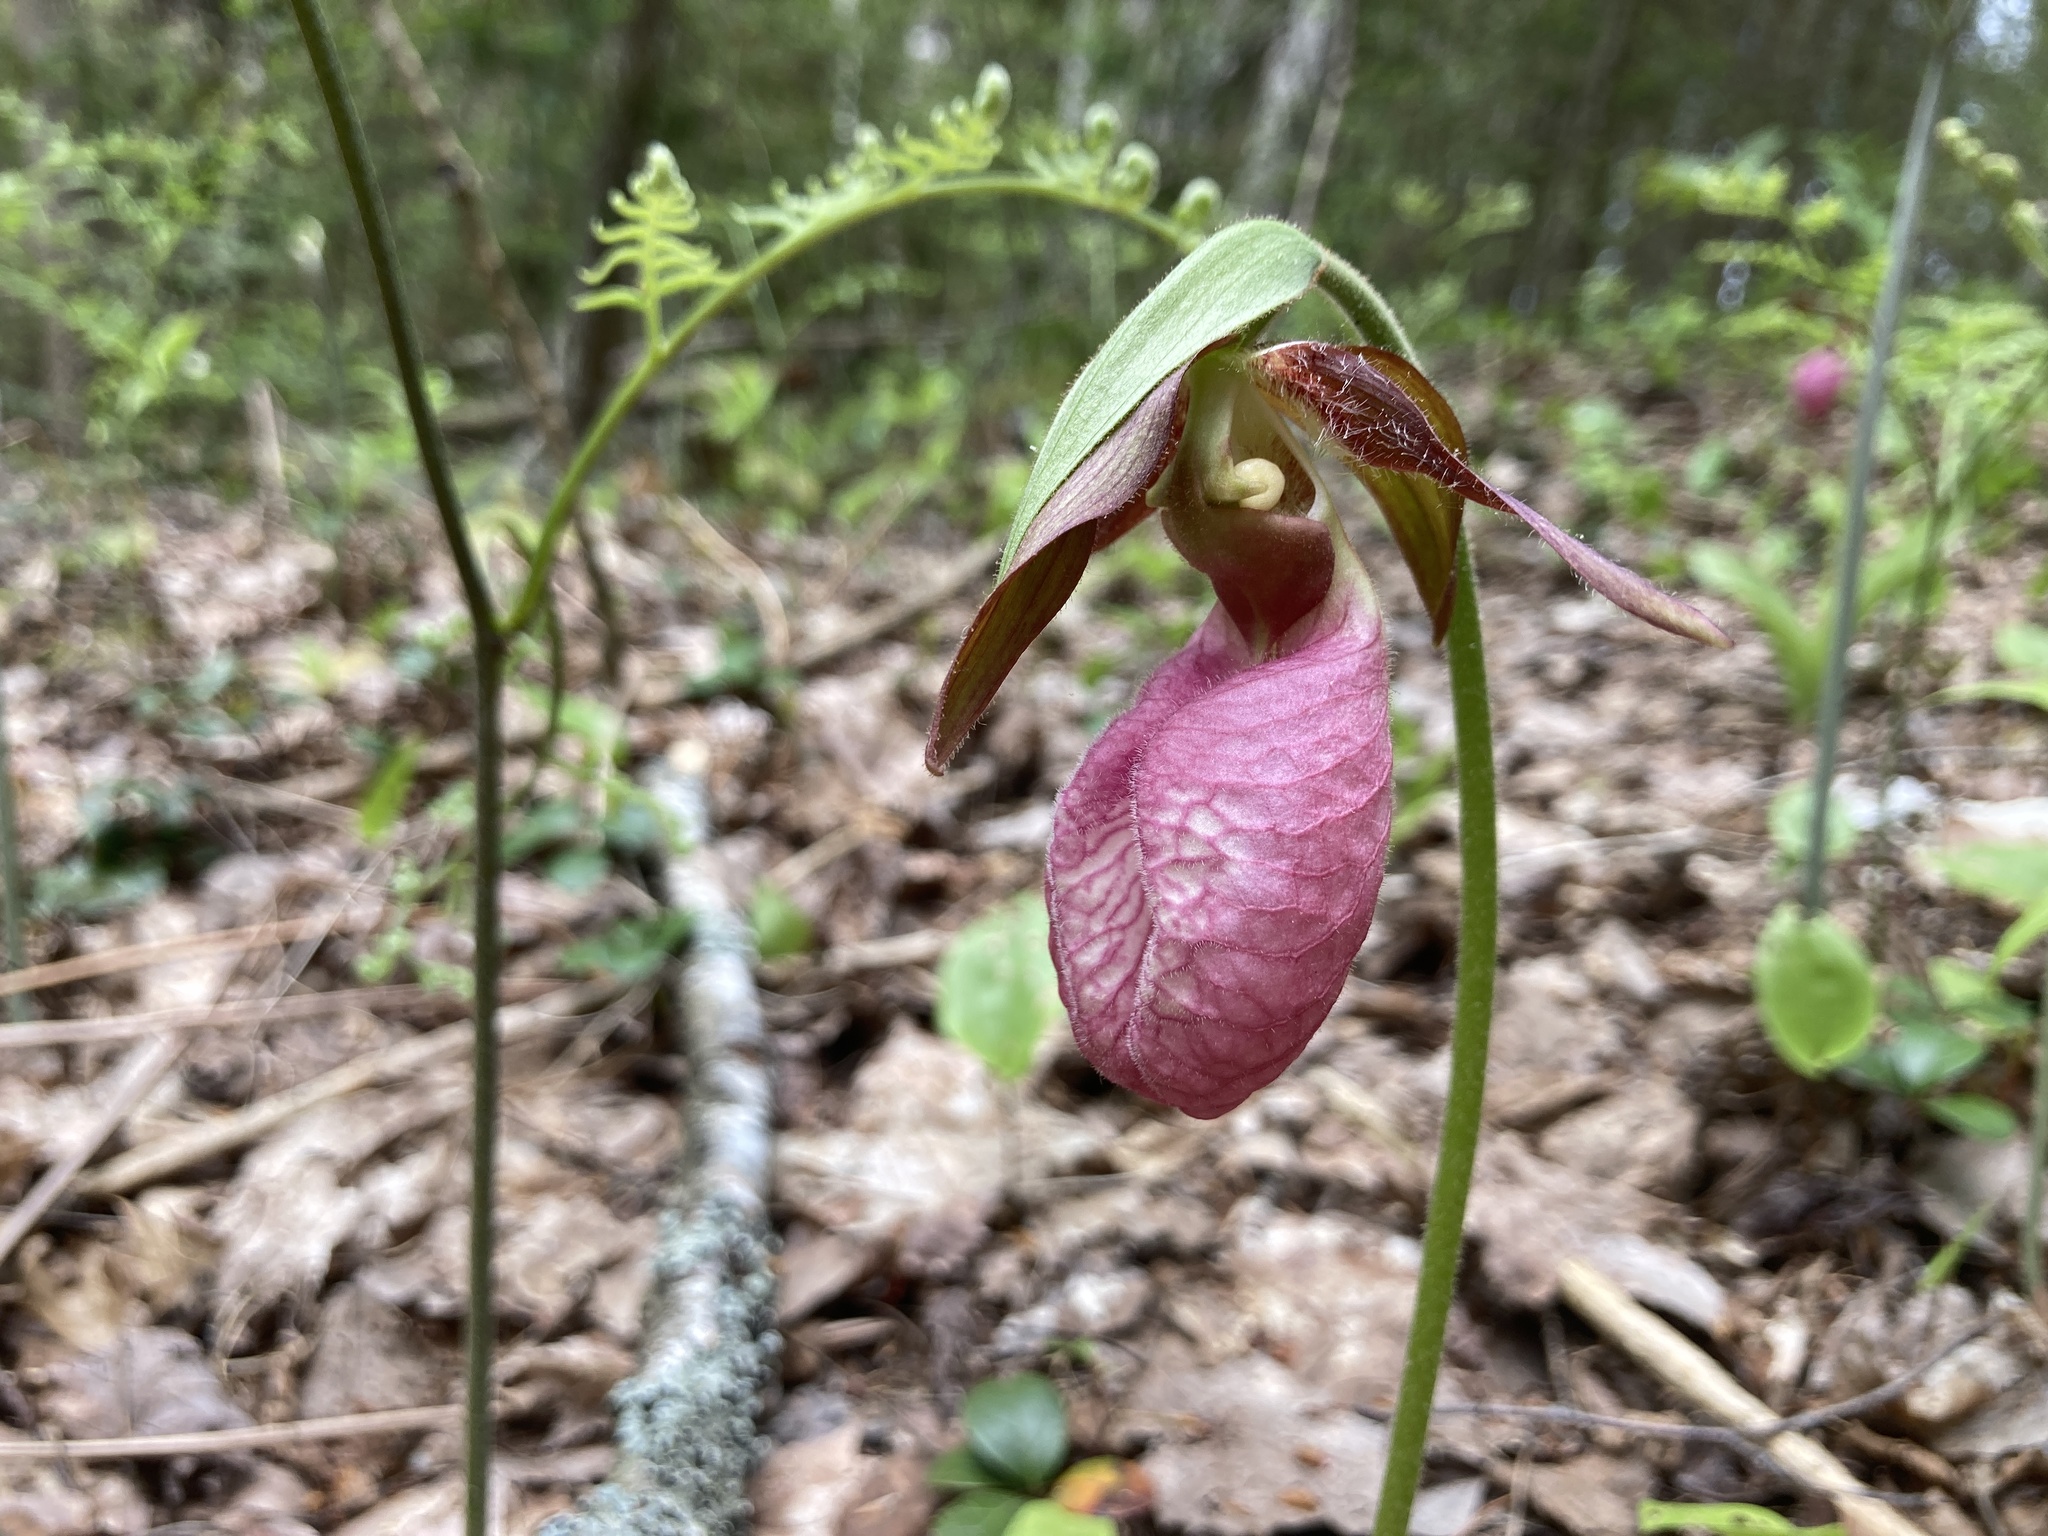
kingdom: Plantae
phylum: Tracheophyta
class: Liliopsida
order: Asparagales
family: Orchidaceae
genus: Cypripedium
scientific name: Cypripedium acaule
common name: Pink lady's-slipper
